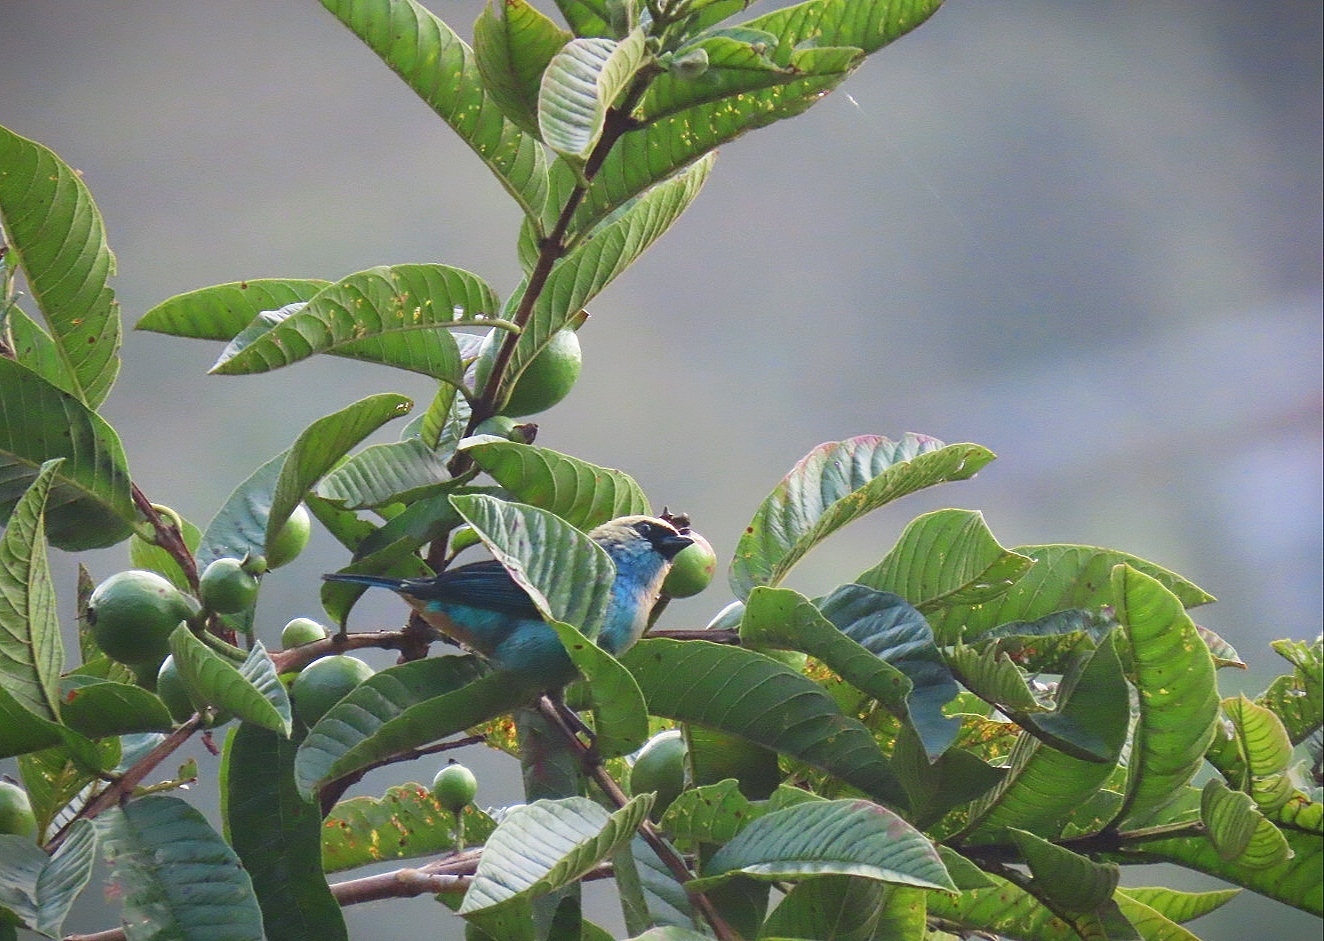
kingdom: Animalia
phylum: Chordata
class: Aves
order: Passeriformes
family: Thraupidae
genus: Tangara
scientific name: Tangara labradorides
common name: Metallic-green tanager
